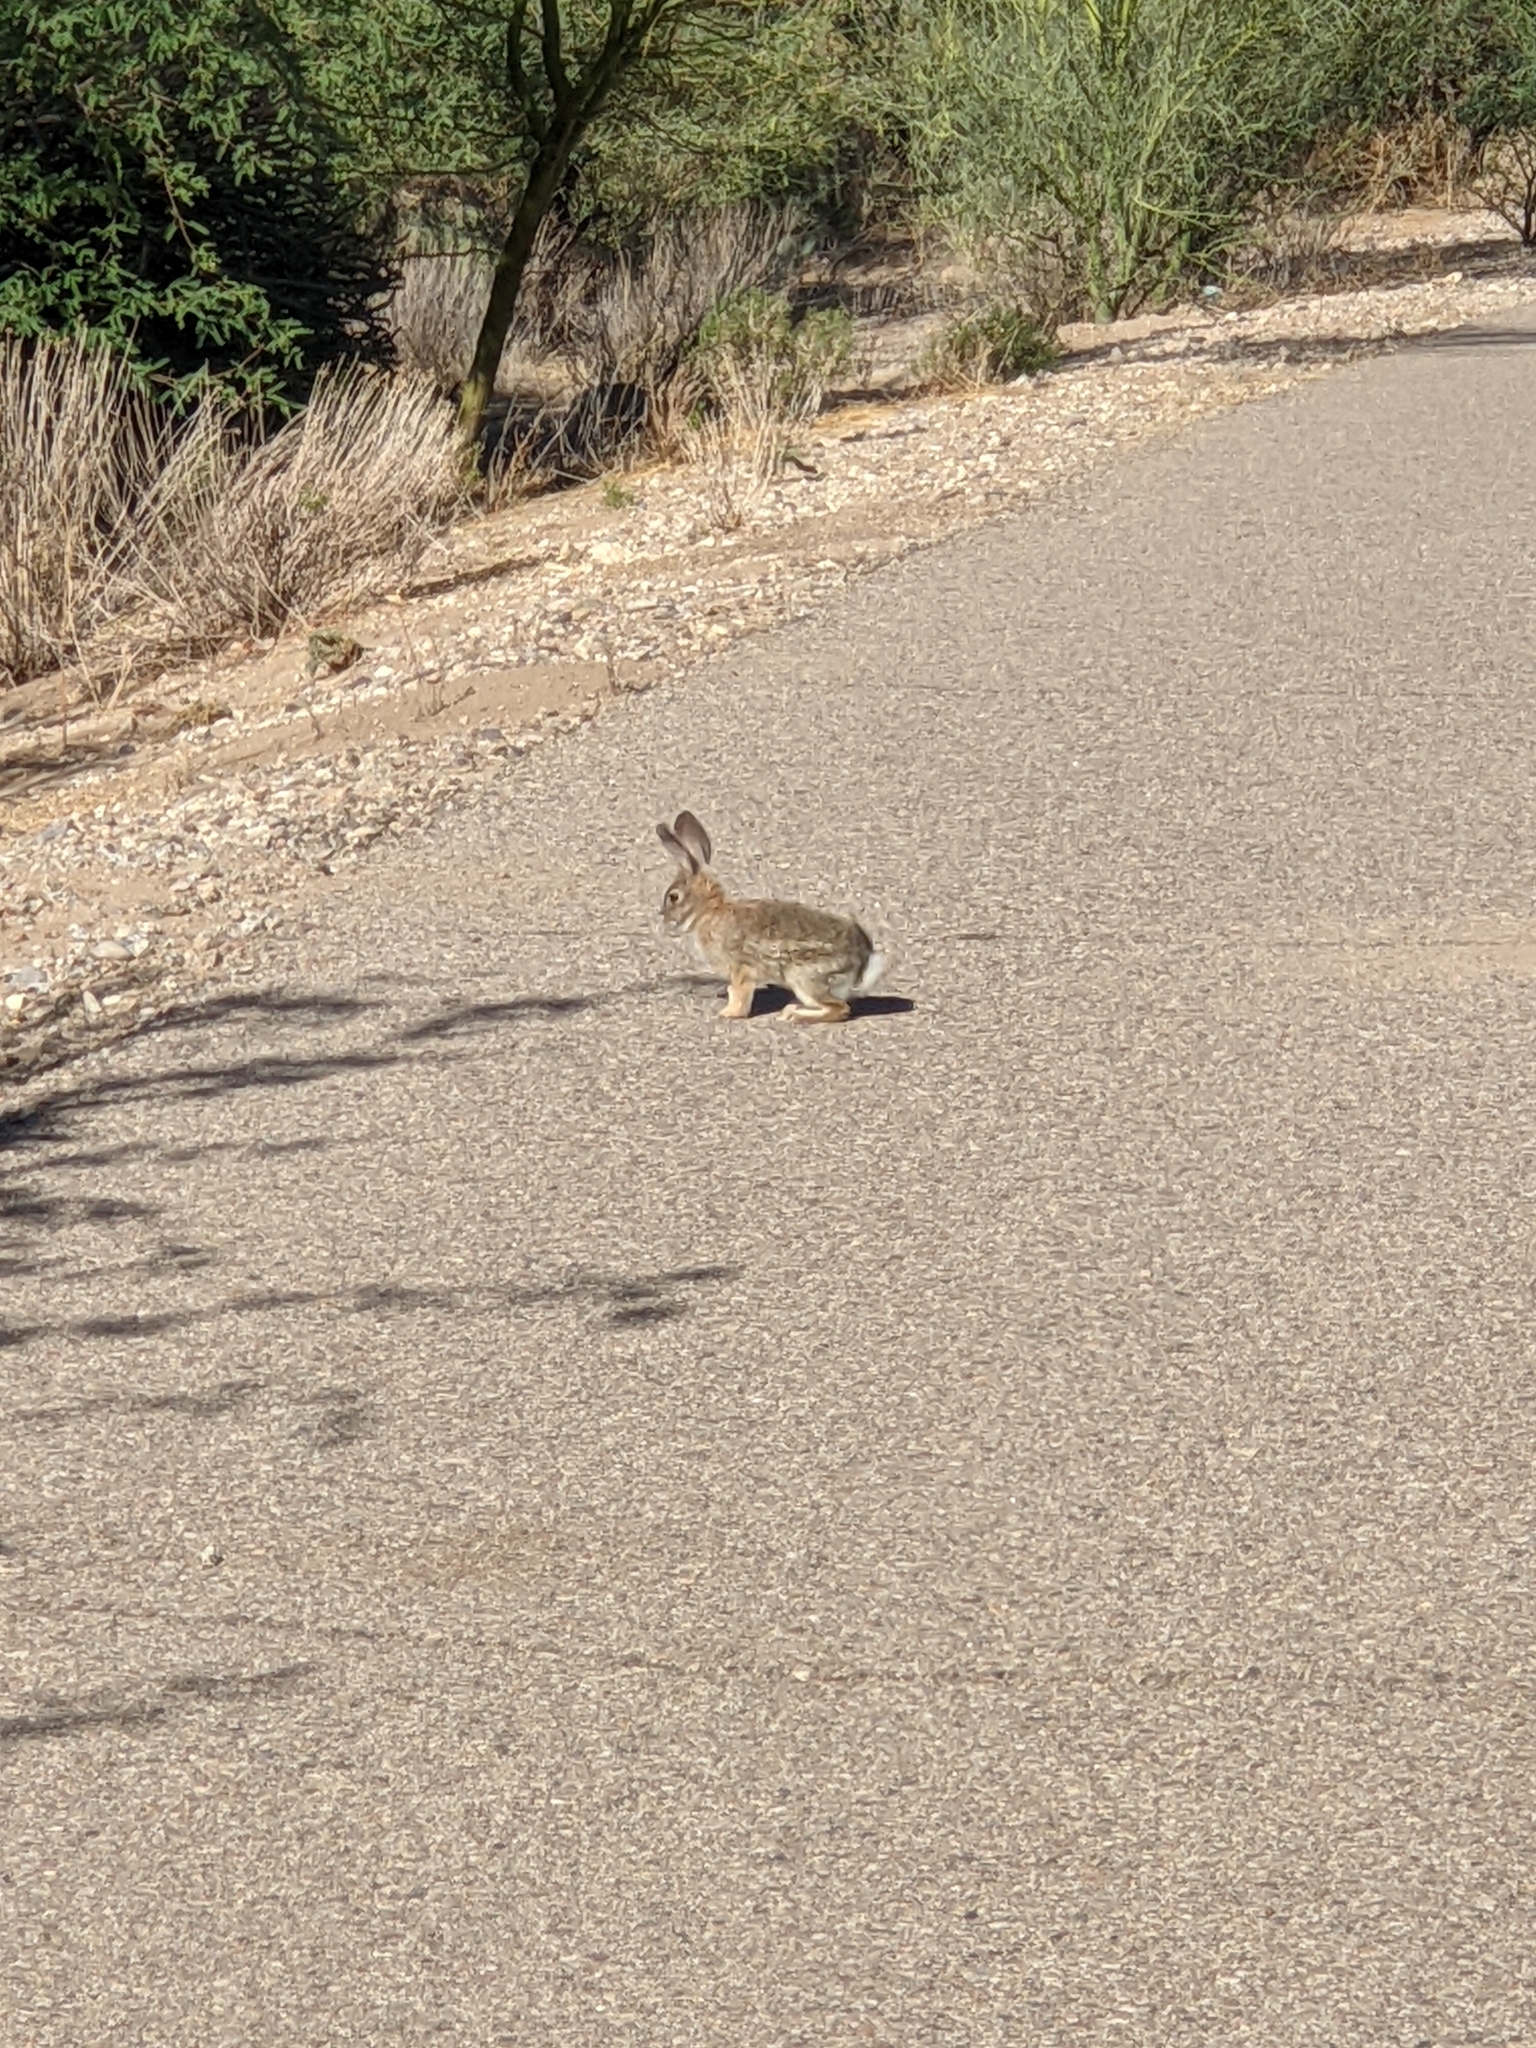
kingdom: Animalia
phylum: Chordata
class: Mammalia
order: Lagomorpha
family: Leporidae
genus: Sylvilagus
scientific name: Sylvilagus audubonii
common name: Desert cottontail
